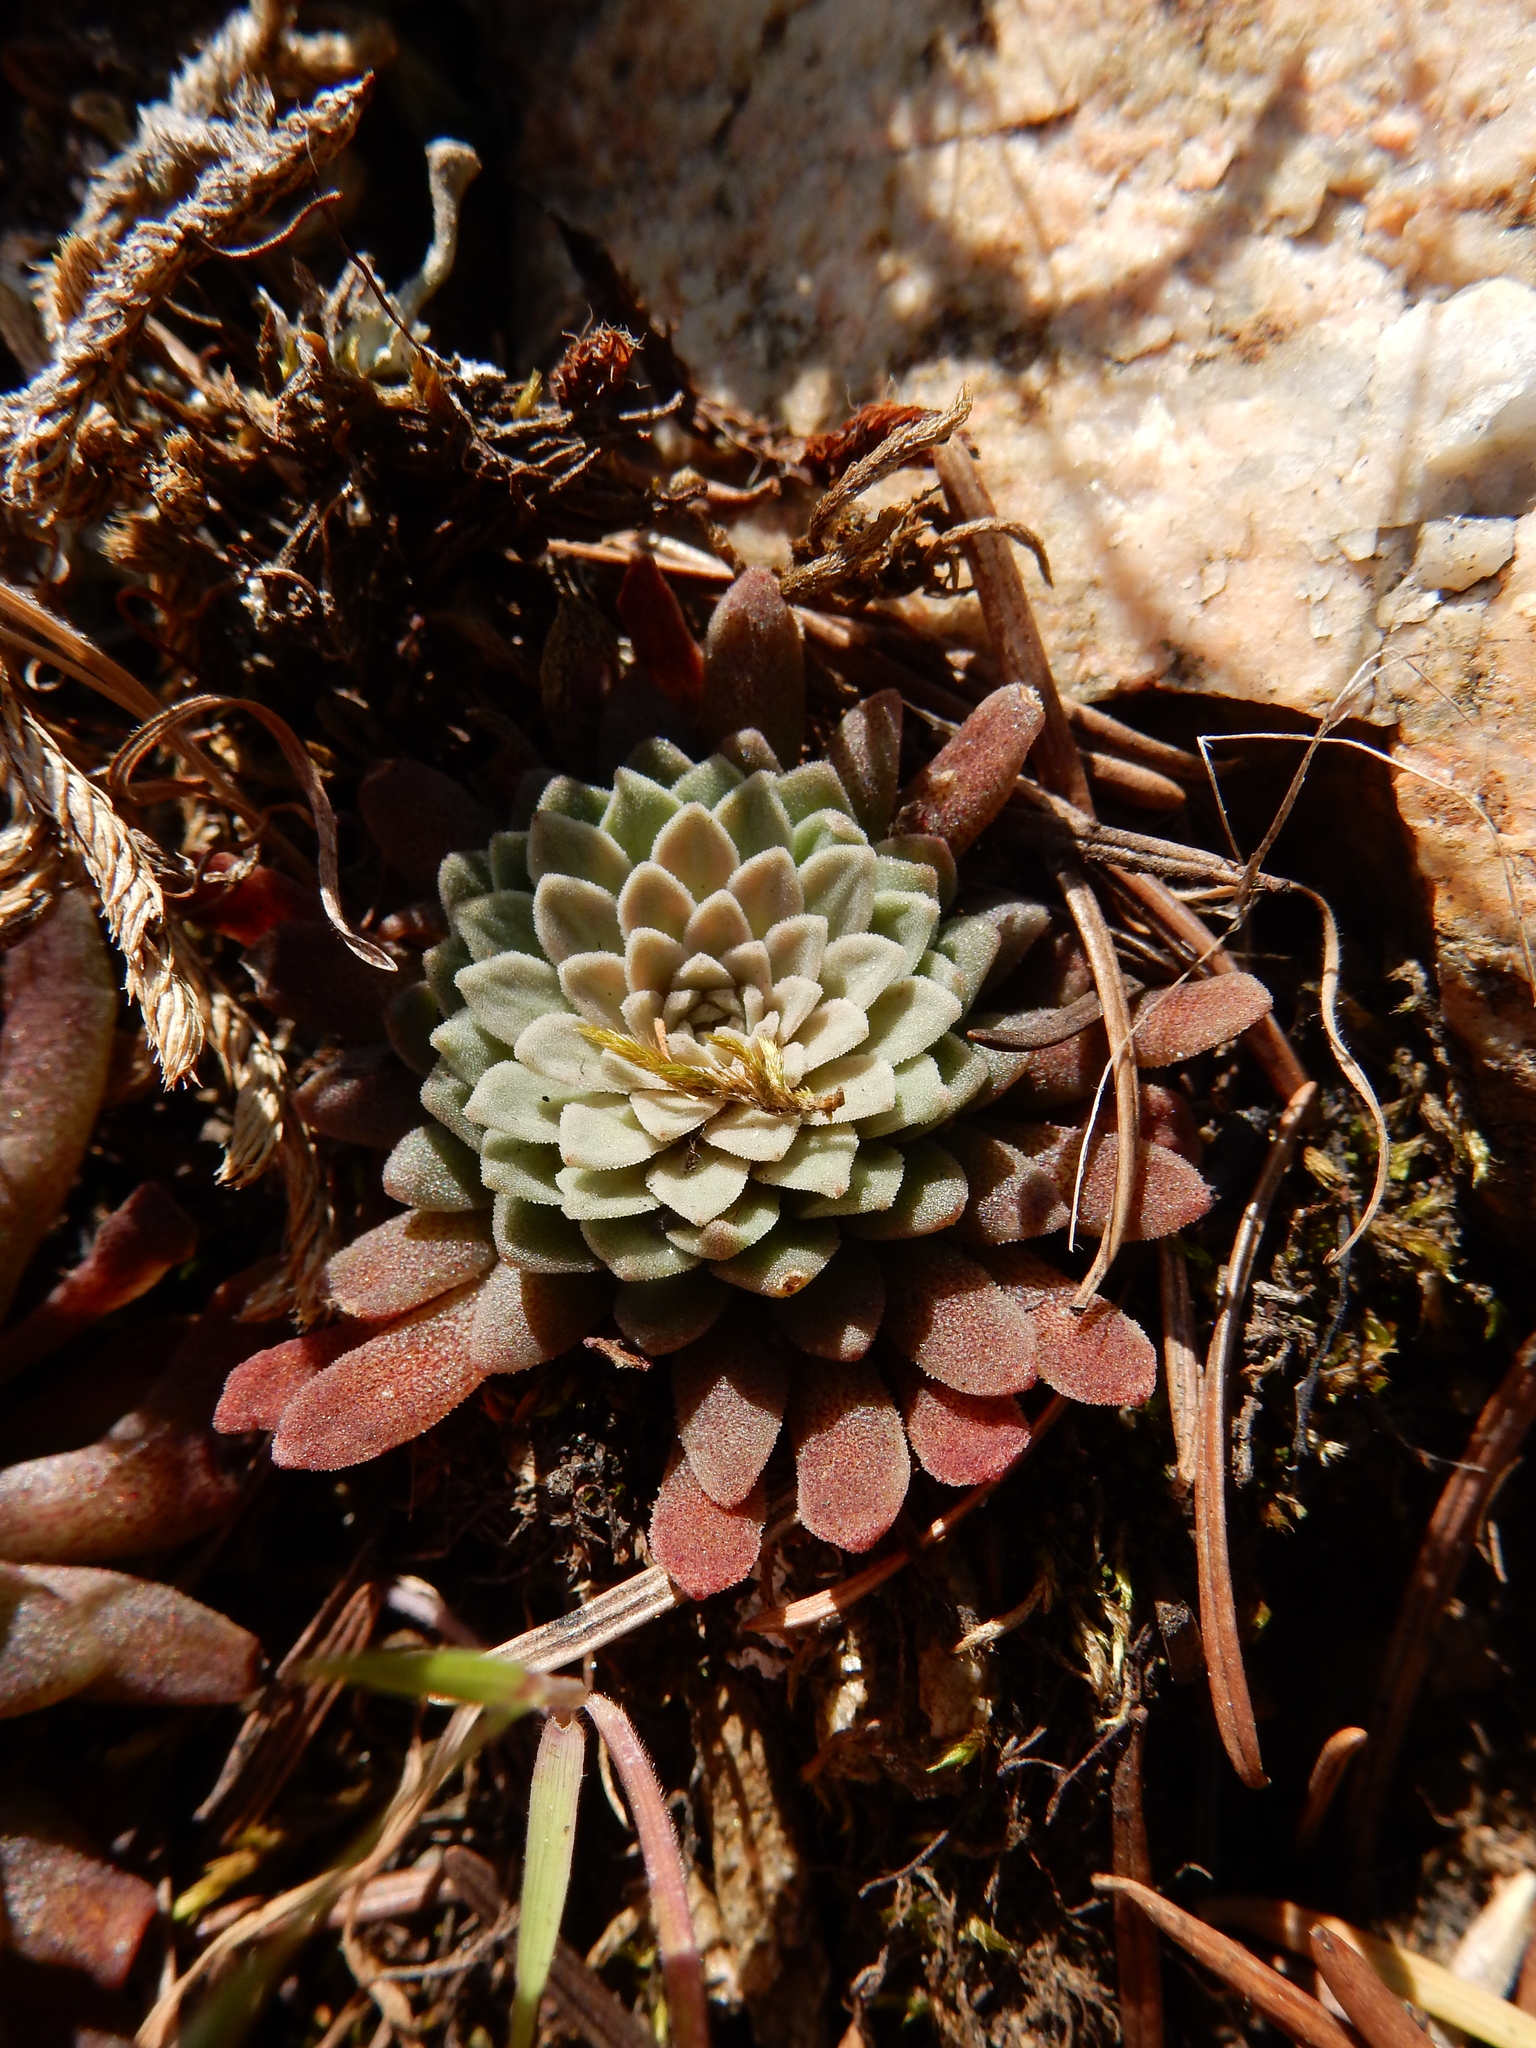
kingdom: Plantae
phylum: Tracheophyta
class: Magnoliopsida
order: Saxifragales
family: Crassulaceae
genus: Sedum
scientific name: Sedum valens
